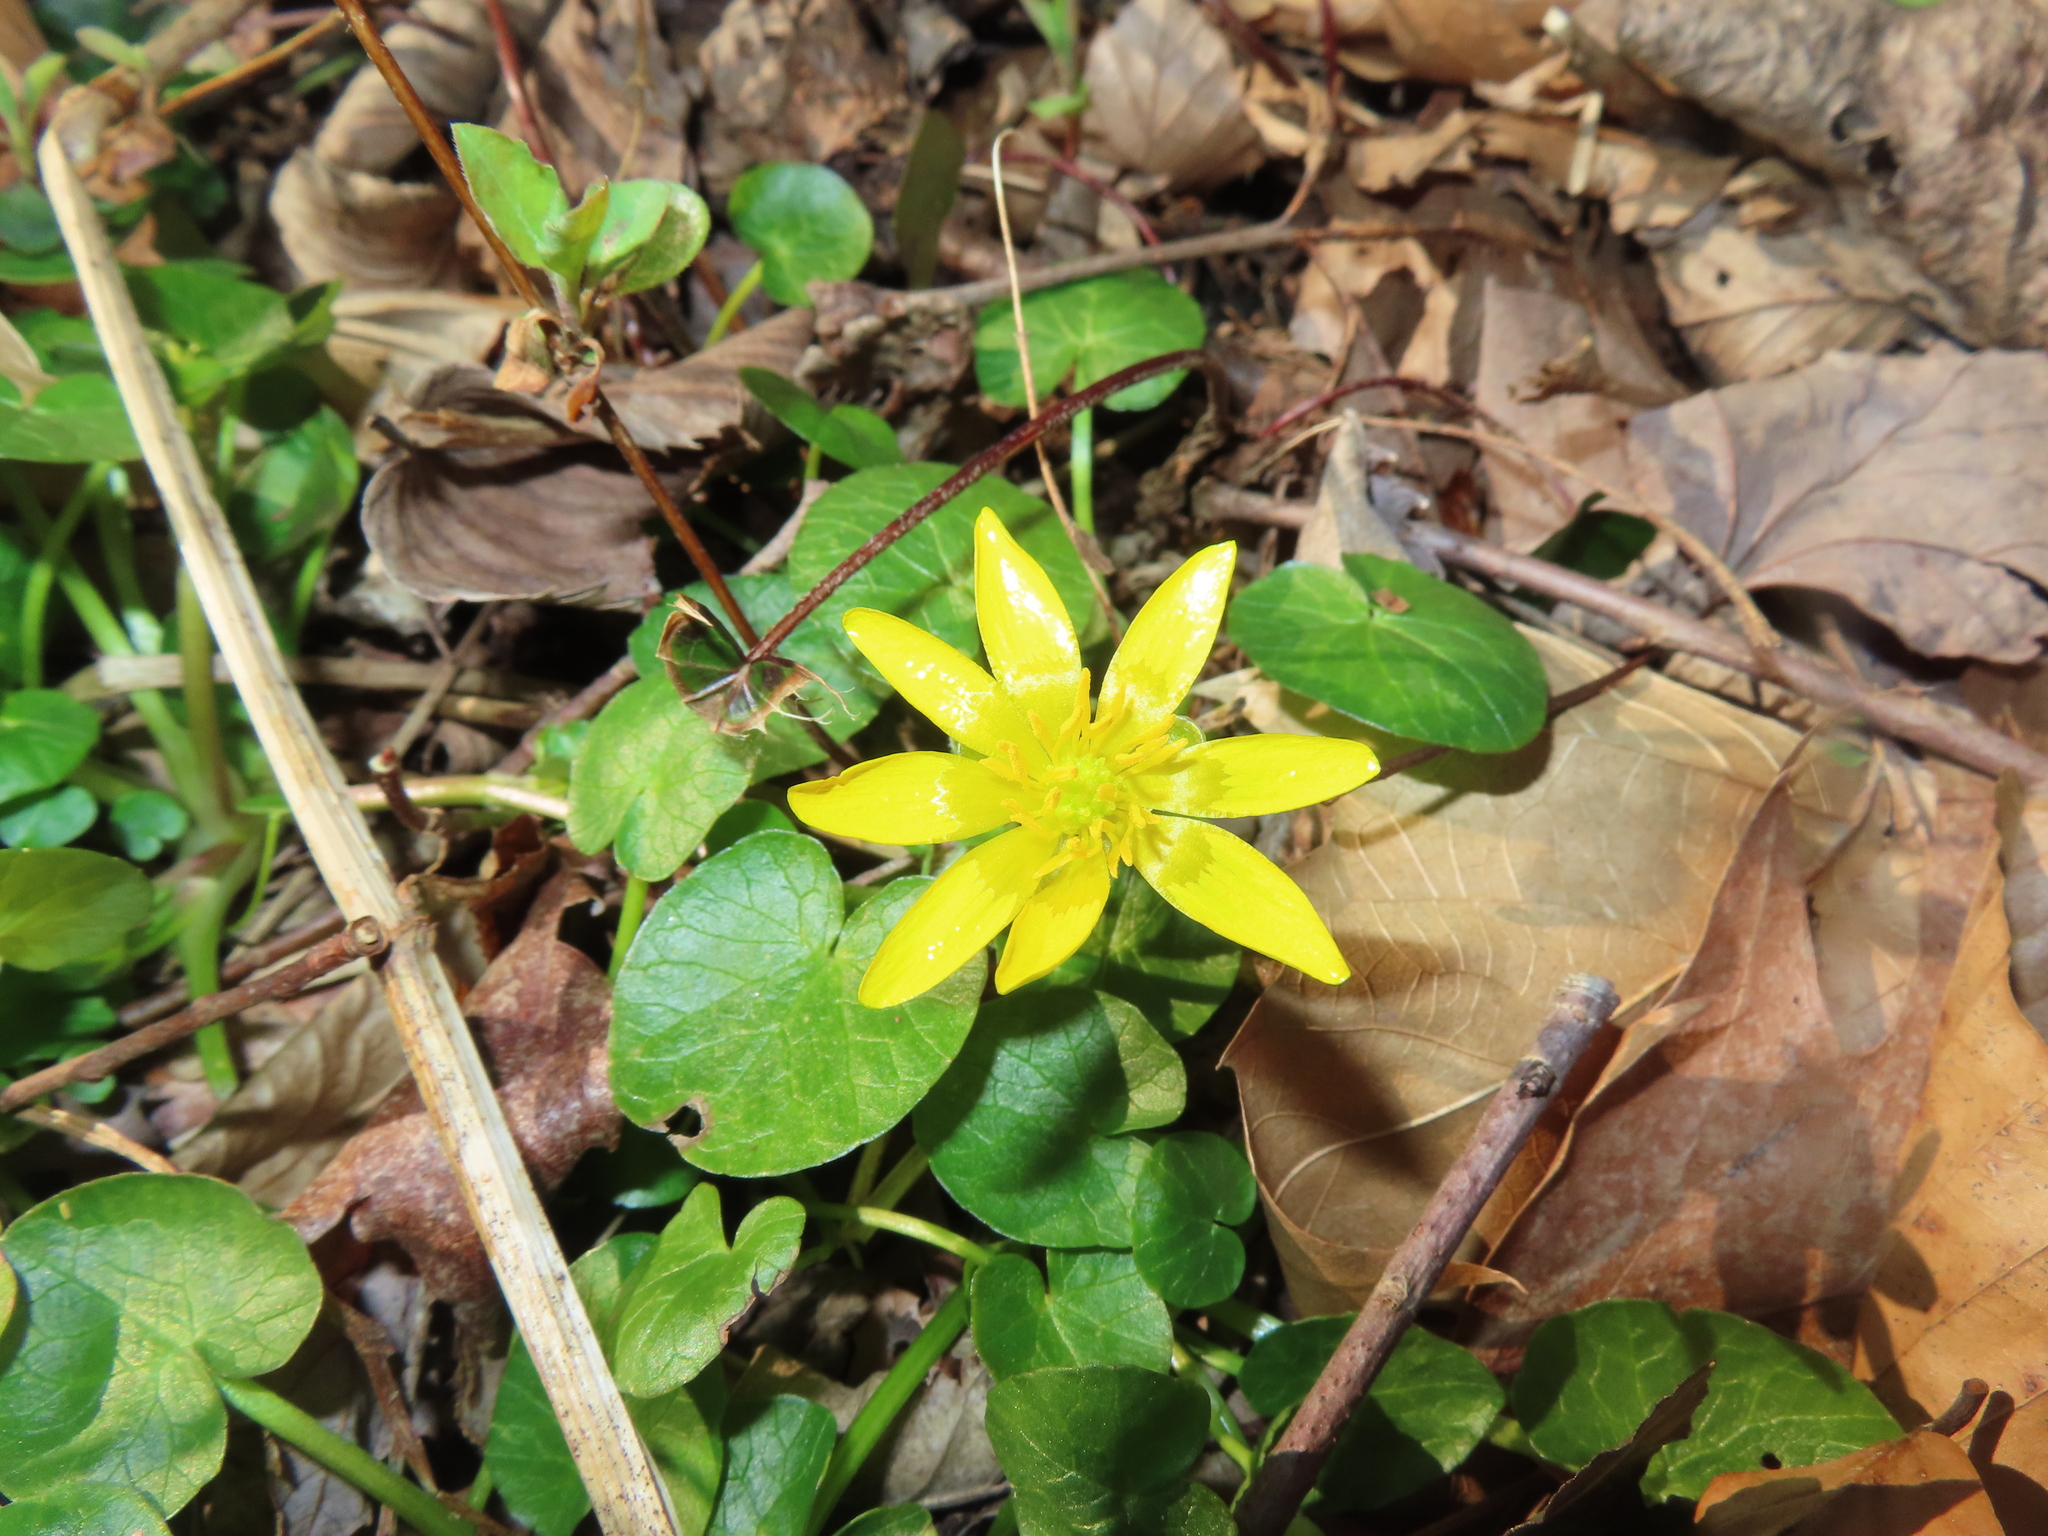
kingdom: Plantae
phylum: Tracheophyta
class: Magnoliopsida
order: Ranunculales
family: Ranunculaceae
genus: Ficaria
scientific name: Ficaria verna
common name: Lesser celandine
